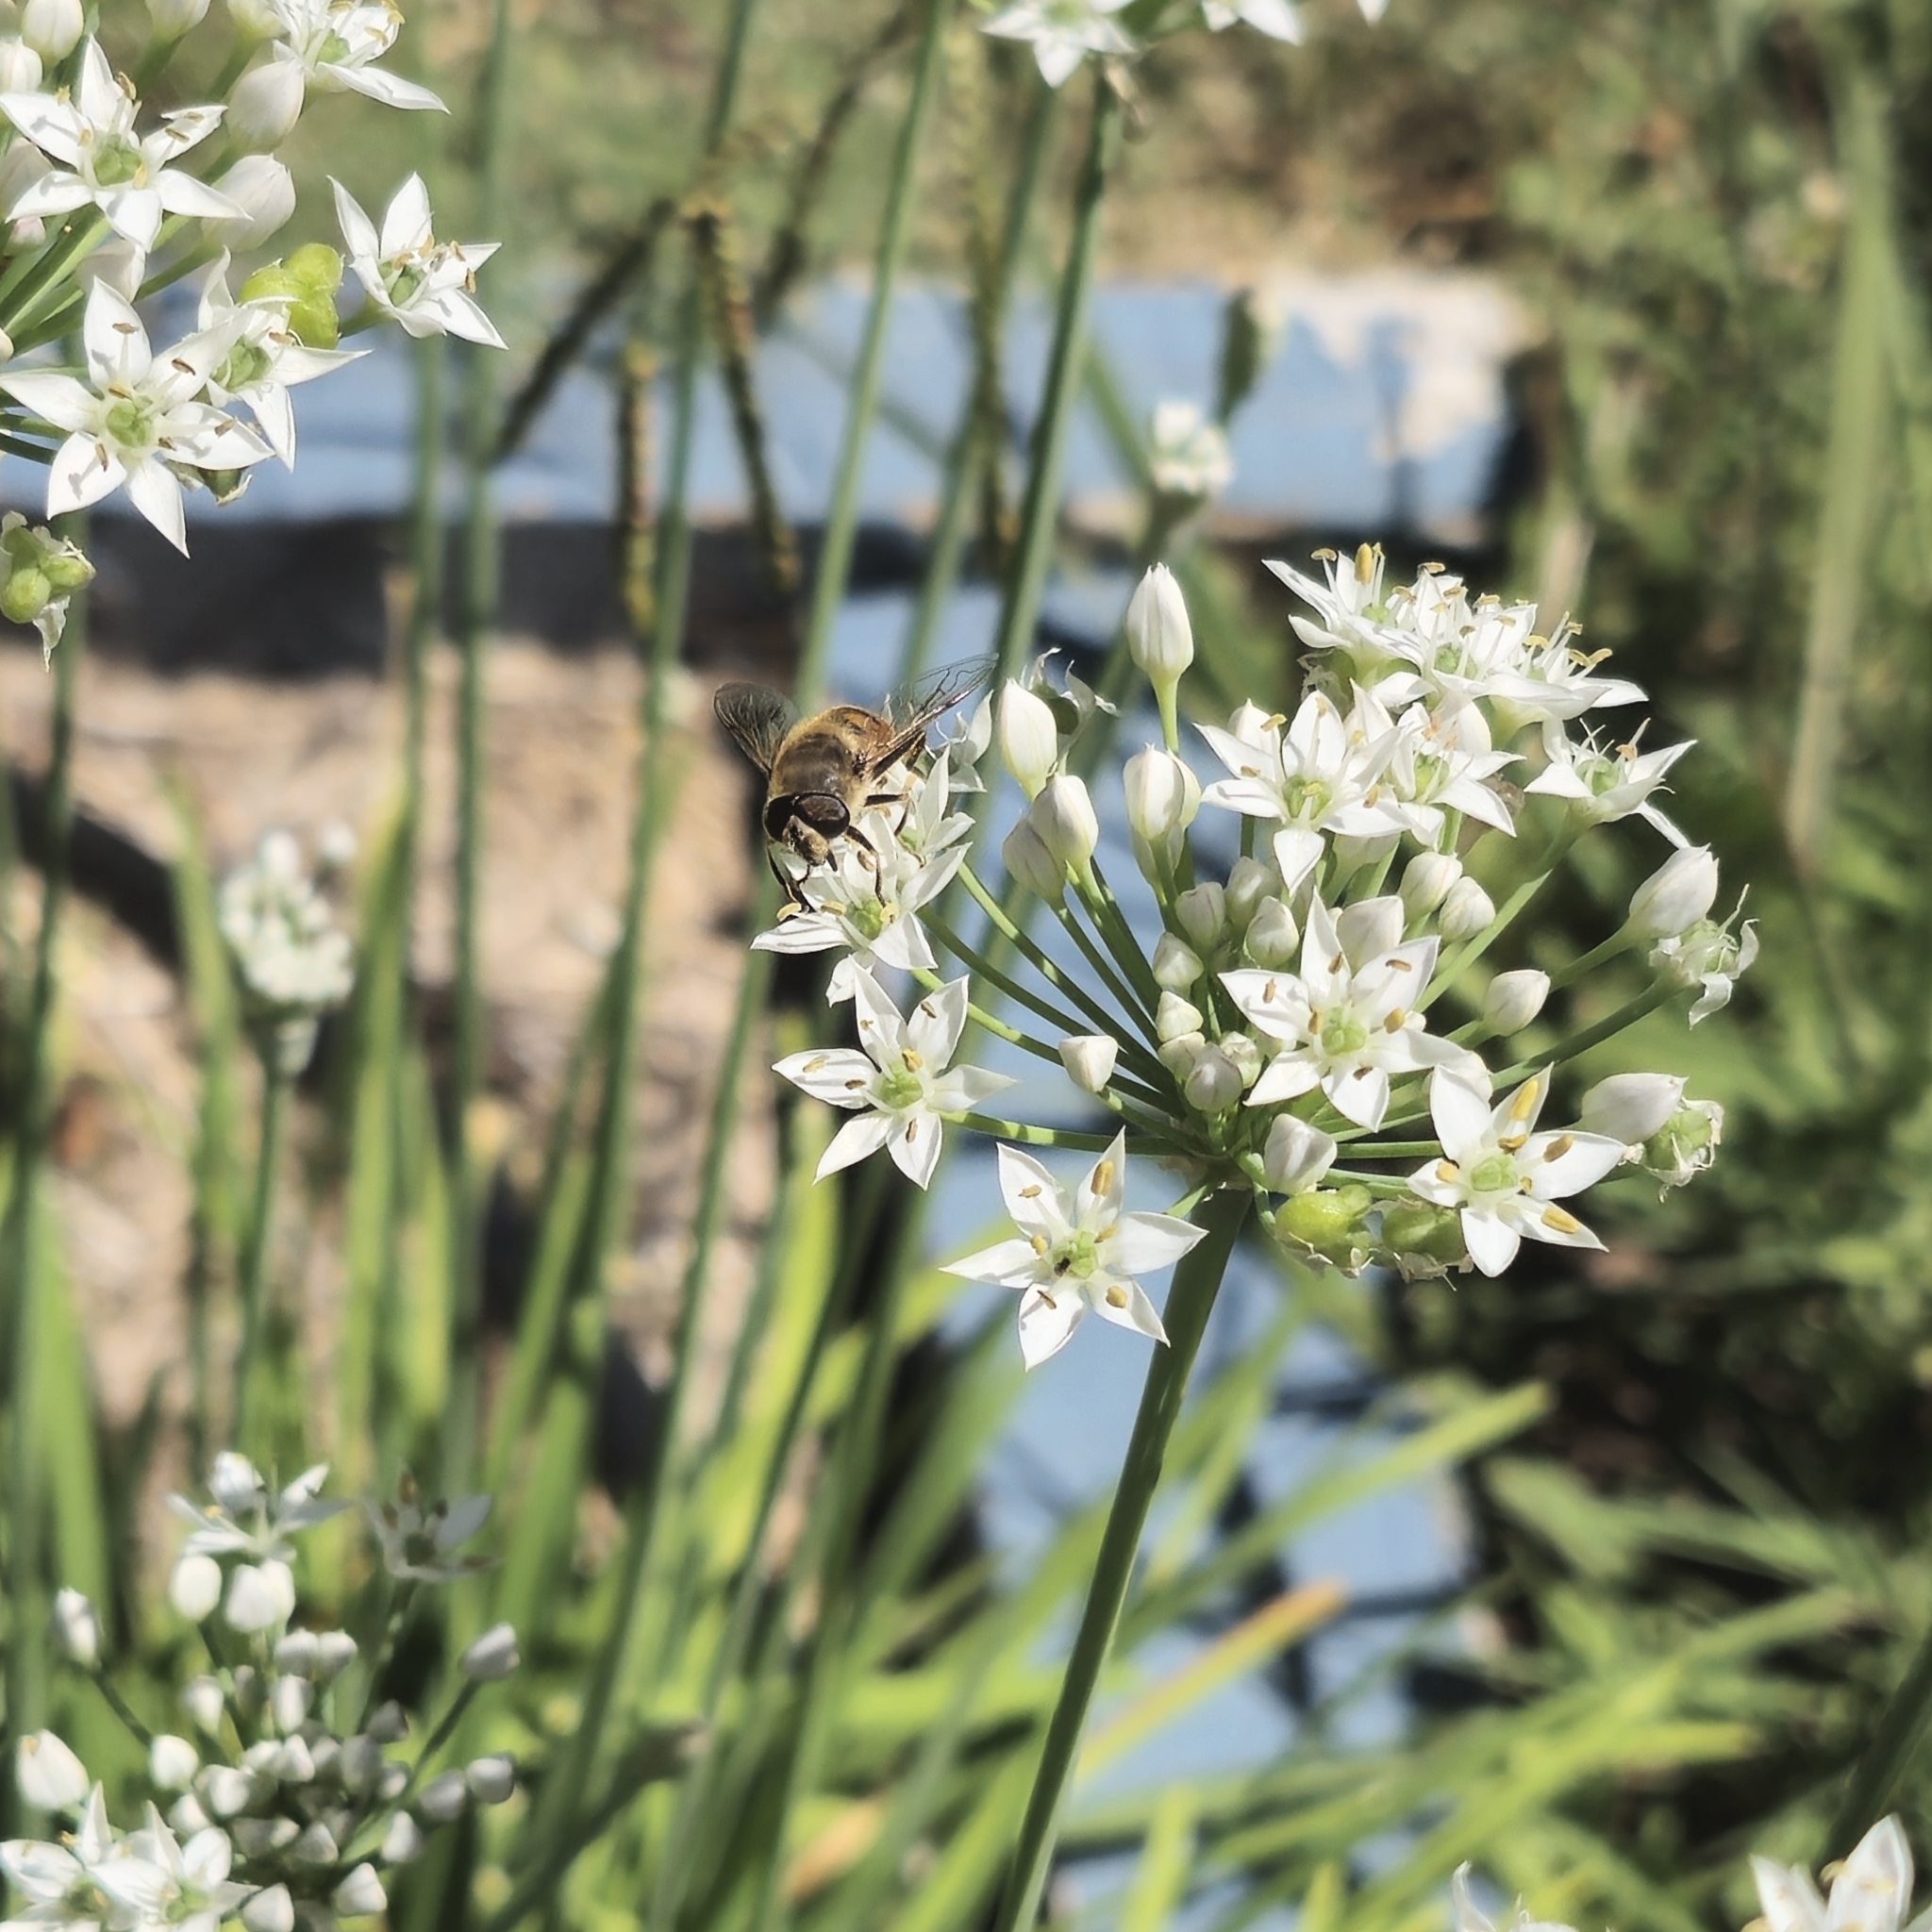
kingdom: Animalia
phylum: Arthropoda
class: Insecta
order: Diptera
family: Syrphidae
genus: Eristalis
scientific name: Eristalis tenax
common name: Drone fly
